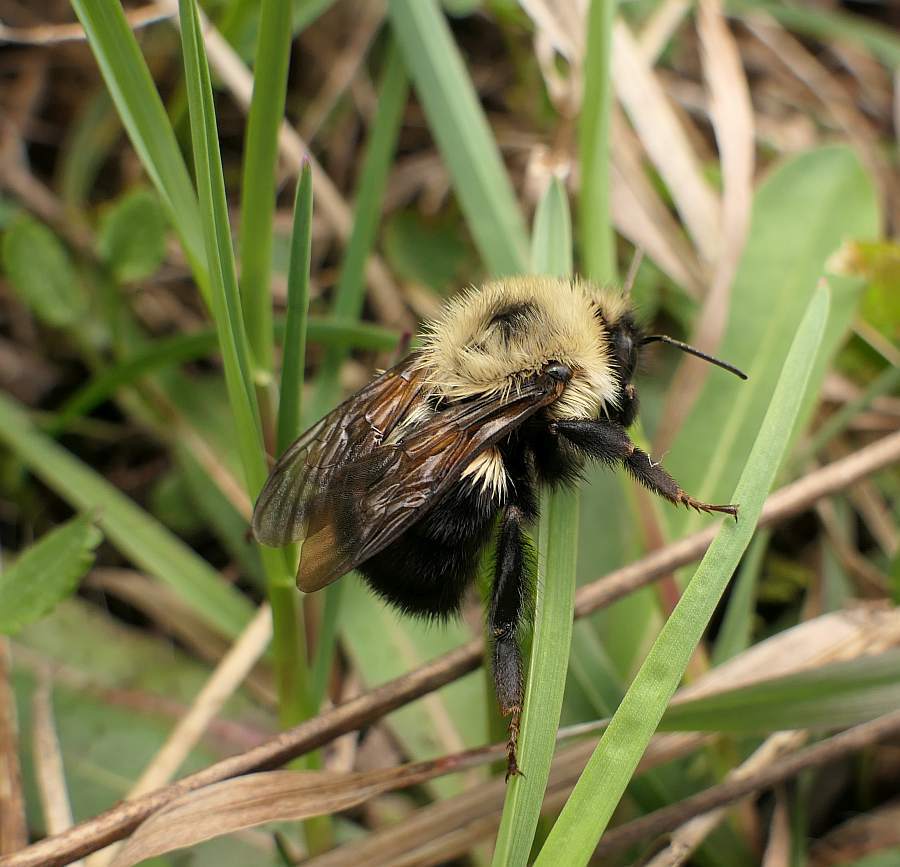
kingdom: Animalia
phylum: Arthropoda
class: Insecta
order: Hymenoptera
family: Apidae
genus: Bombus
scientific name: Bombus bimaculatus
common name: Two-spotted bumble bee
